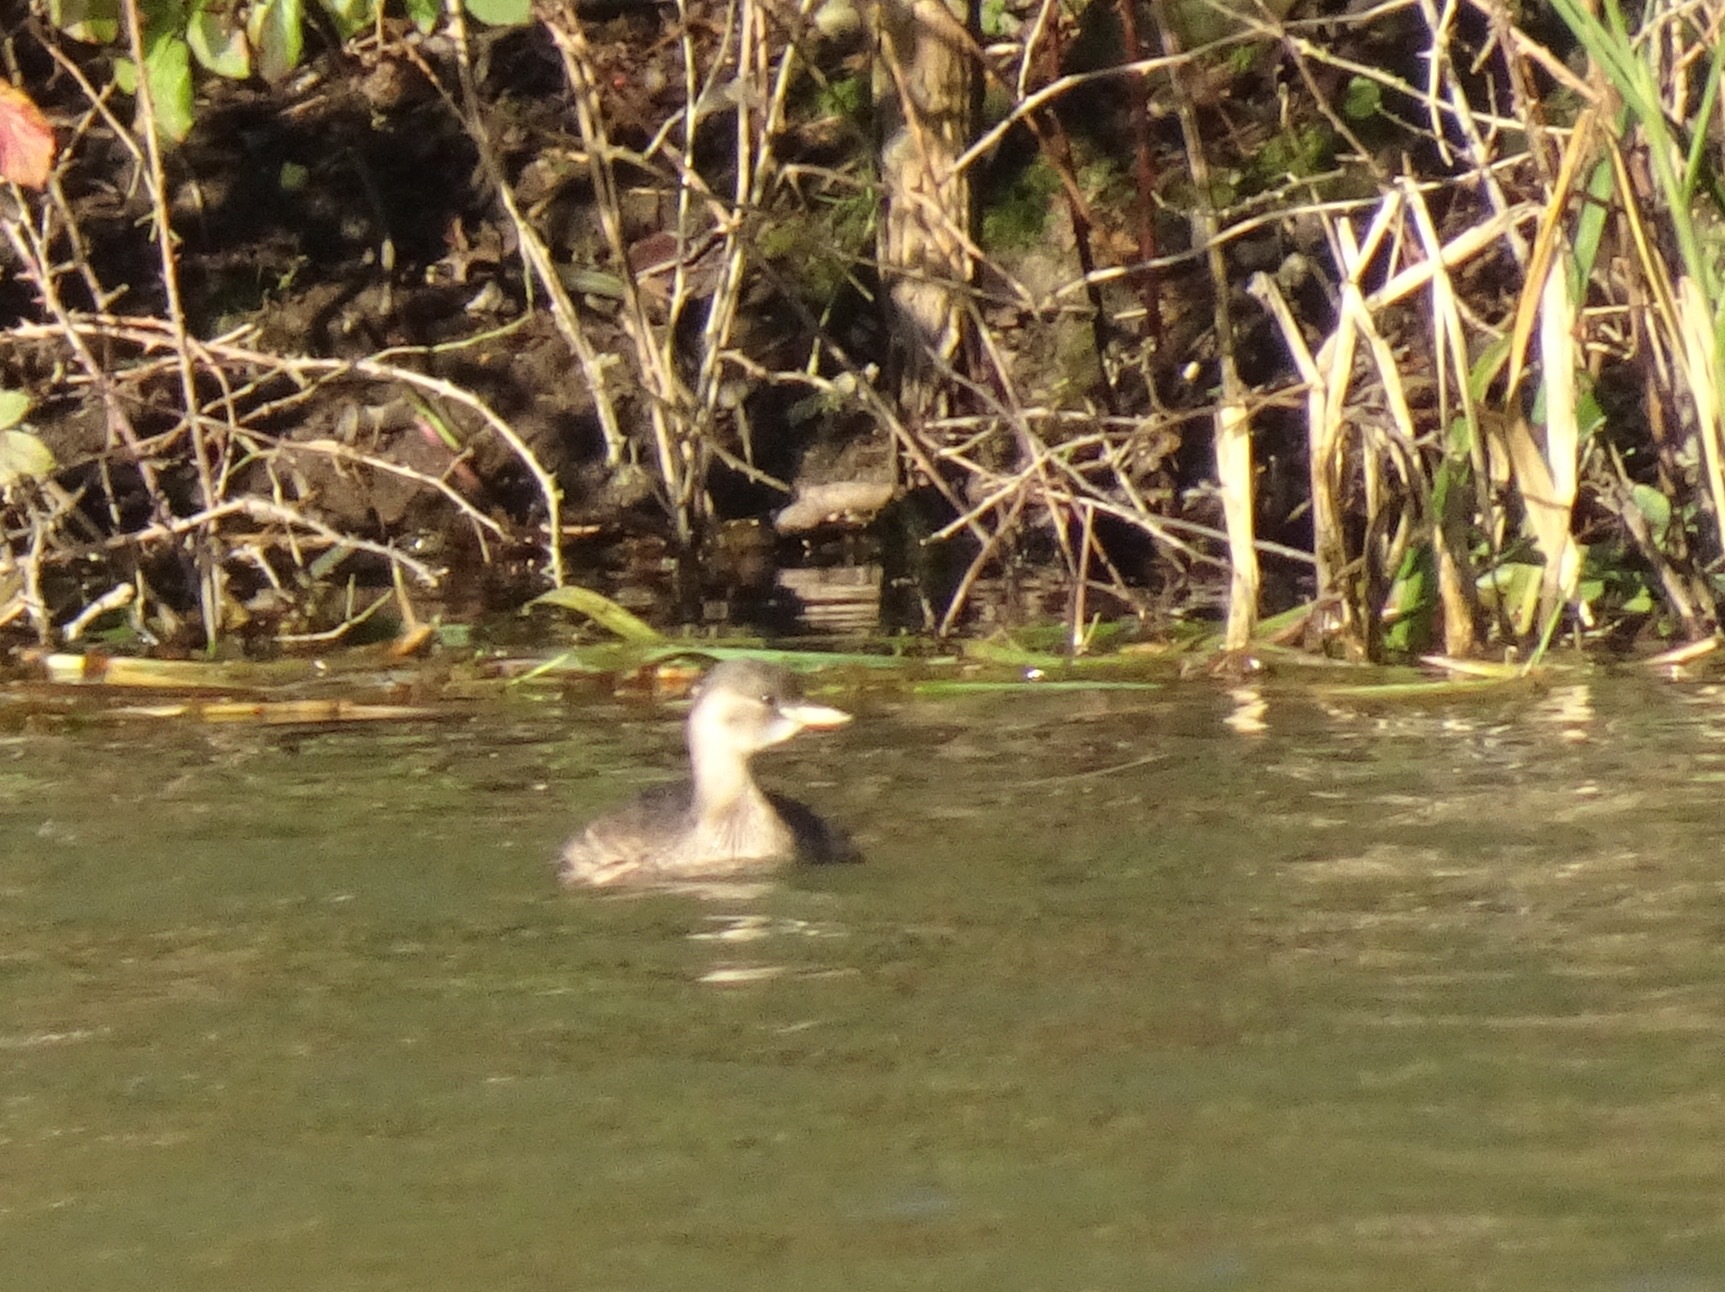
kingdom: Animalia
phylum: Chordata
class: Aves
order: Podicipediformes
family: Podicipedidae
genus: Tachybaptus
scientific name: Tachybaptus ruficollis
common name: Little grebe
